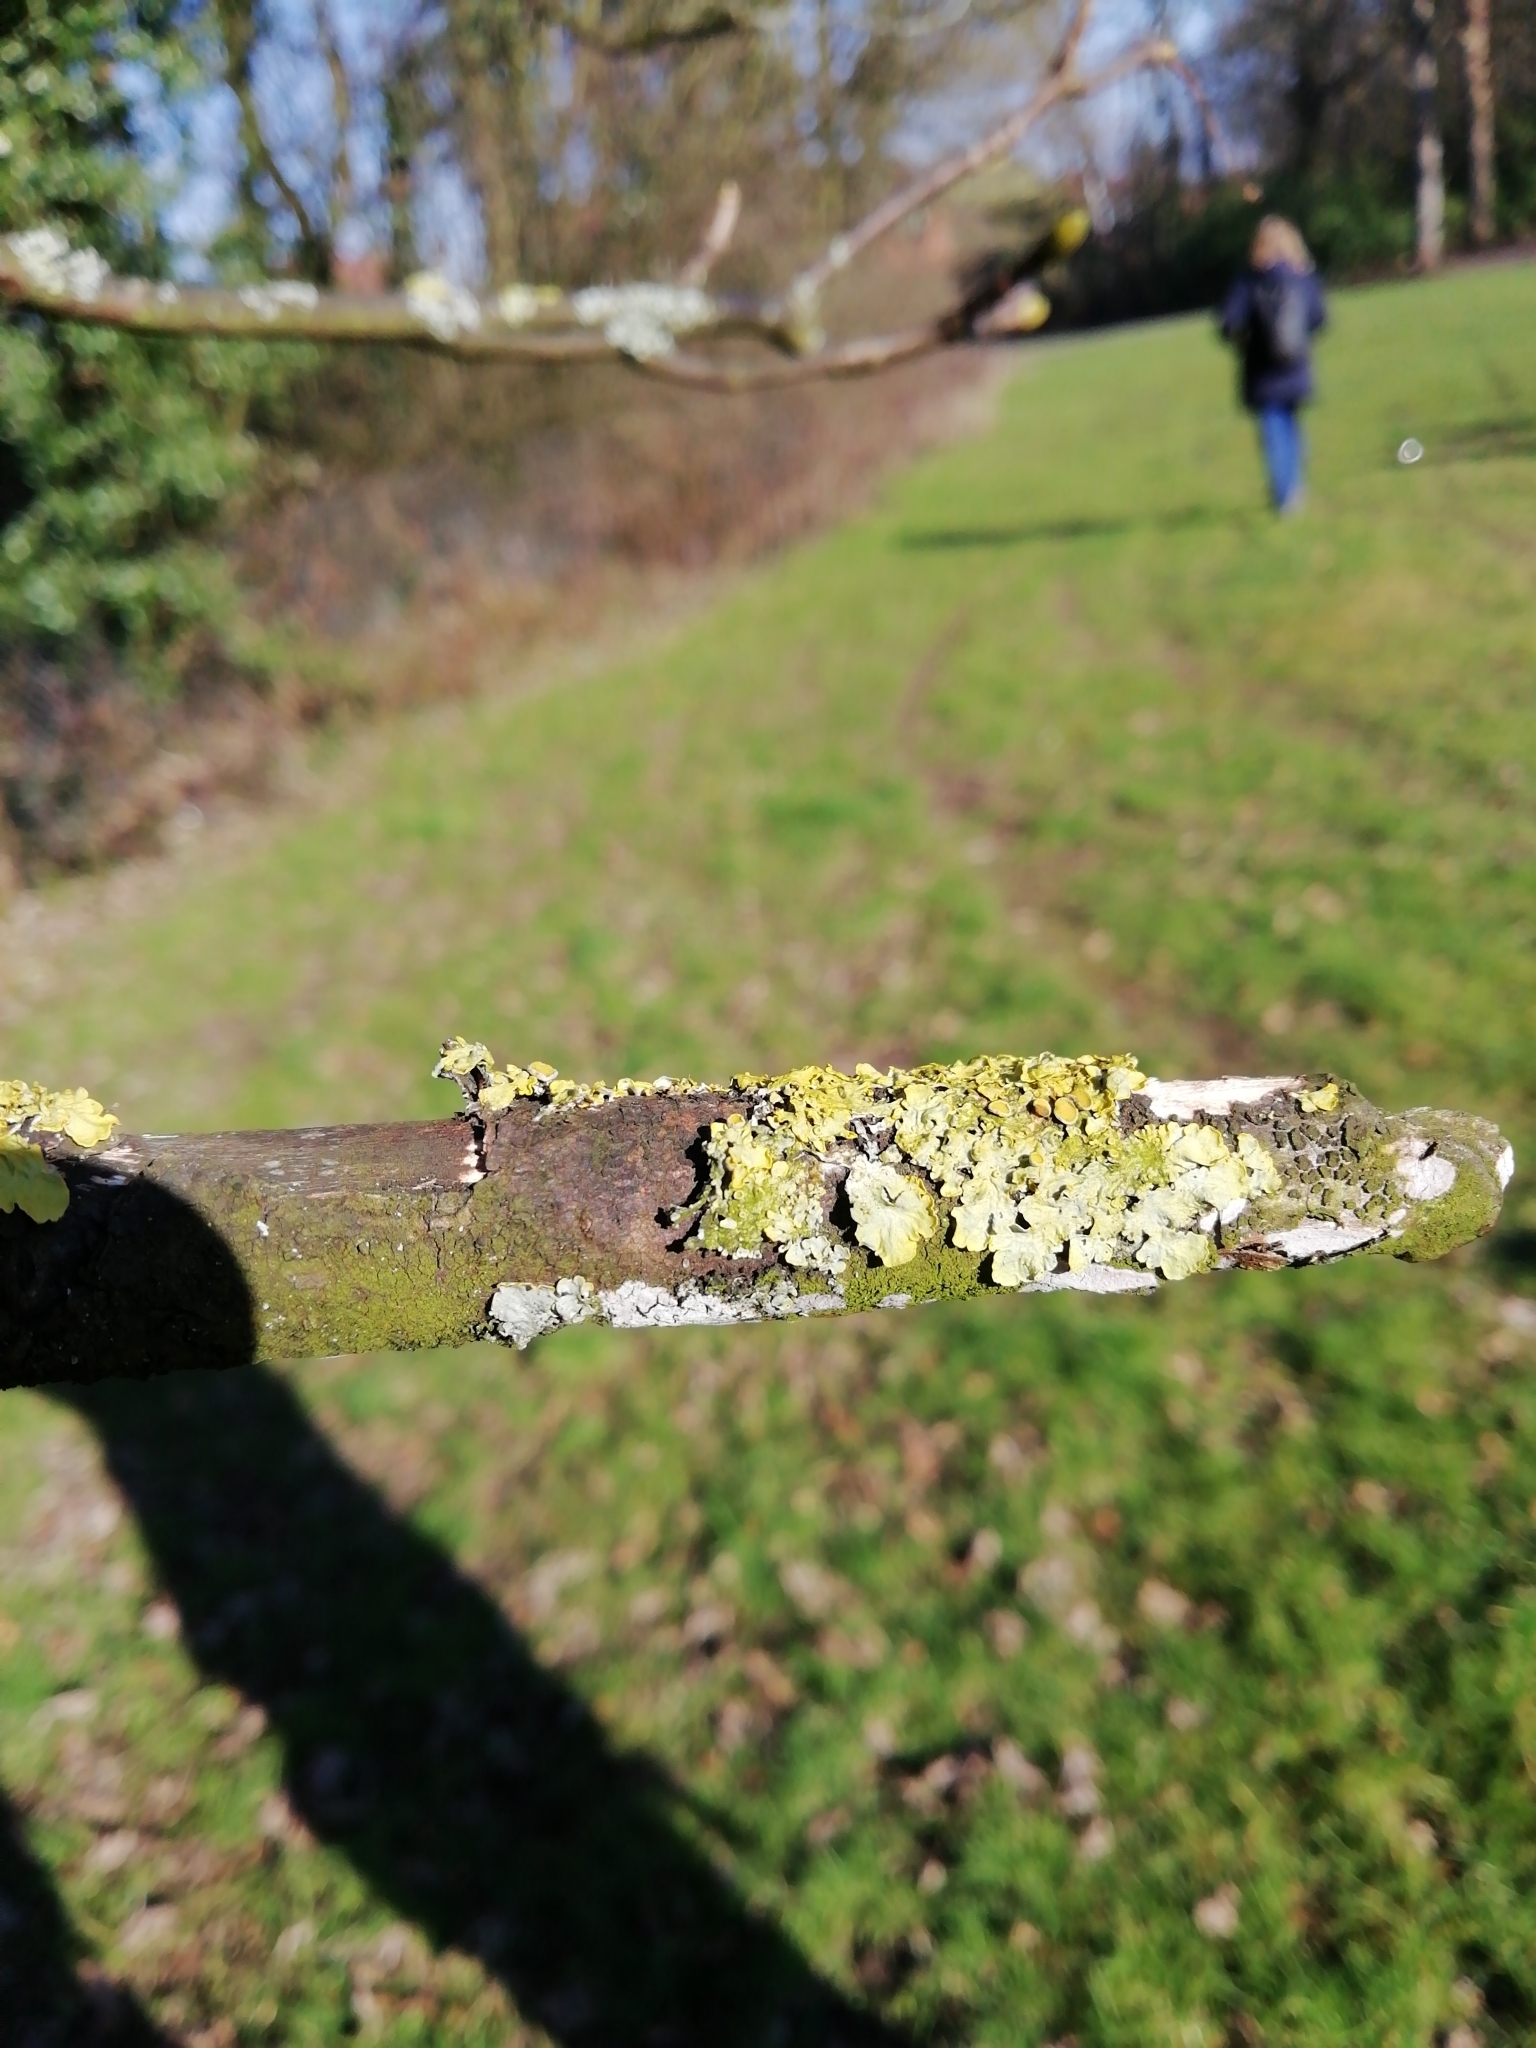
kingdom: Fungi
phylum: Ascomycota
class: Lecanoromycetes
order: Teloschistales
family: Teloschistaceae
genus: Xanthoria
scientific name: Xanthoria parietina
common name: Common orange lichen
